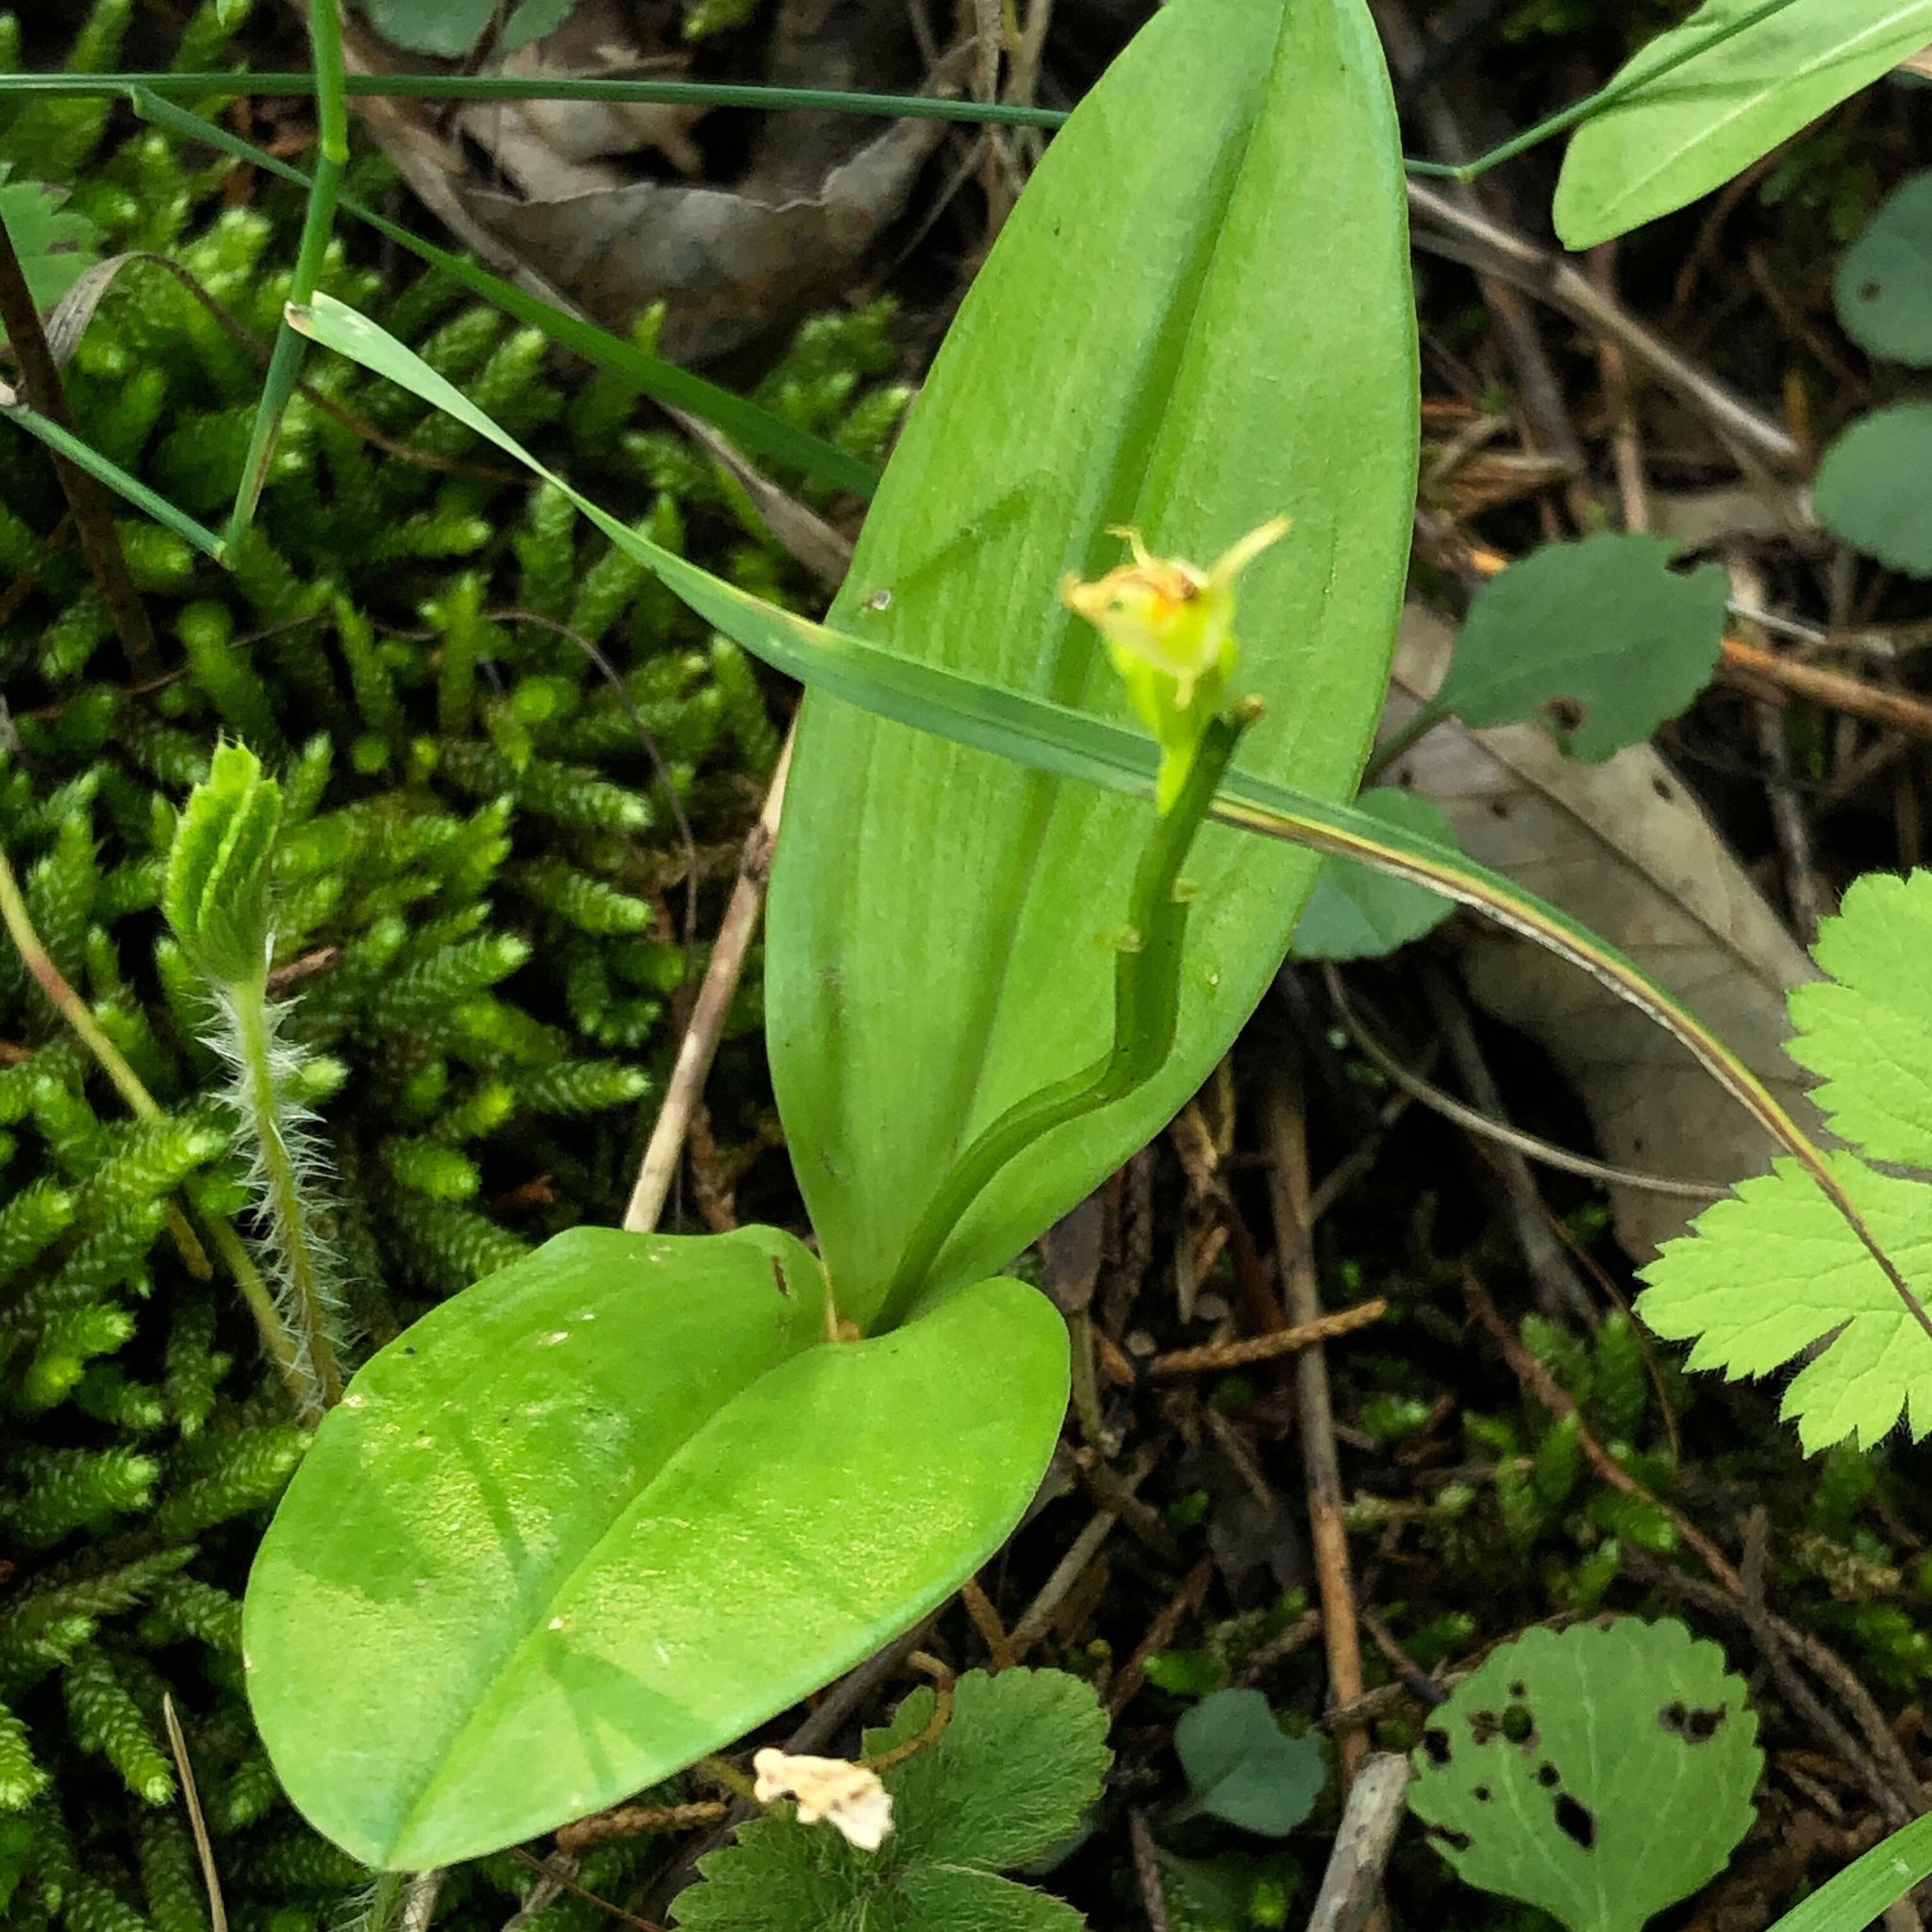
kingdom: Animalia
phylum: Arthropoda
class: Insecta
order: Coleoptera
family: Curculionidae
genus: Liparis
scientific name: Liparis loeselii
